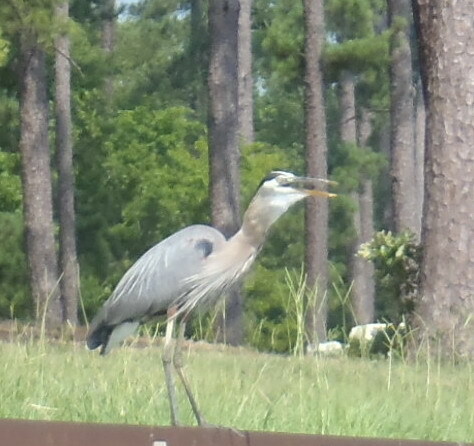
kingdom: Animalia
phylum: Chordata
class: Aves
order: Pelecaniformes
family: Ardeidae
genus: Ardea
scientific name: Ardea herodias
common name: Great blue heron
